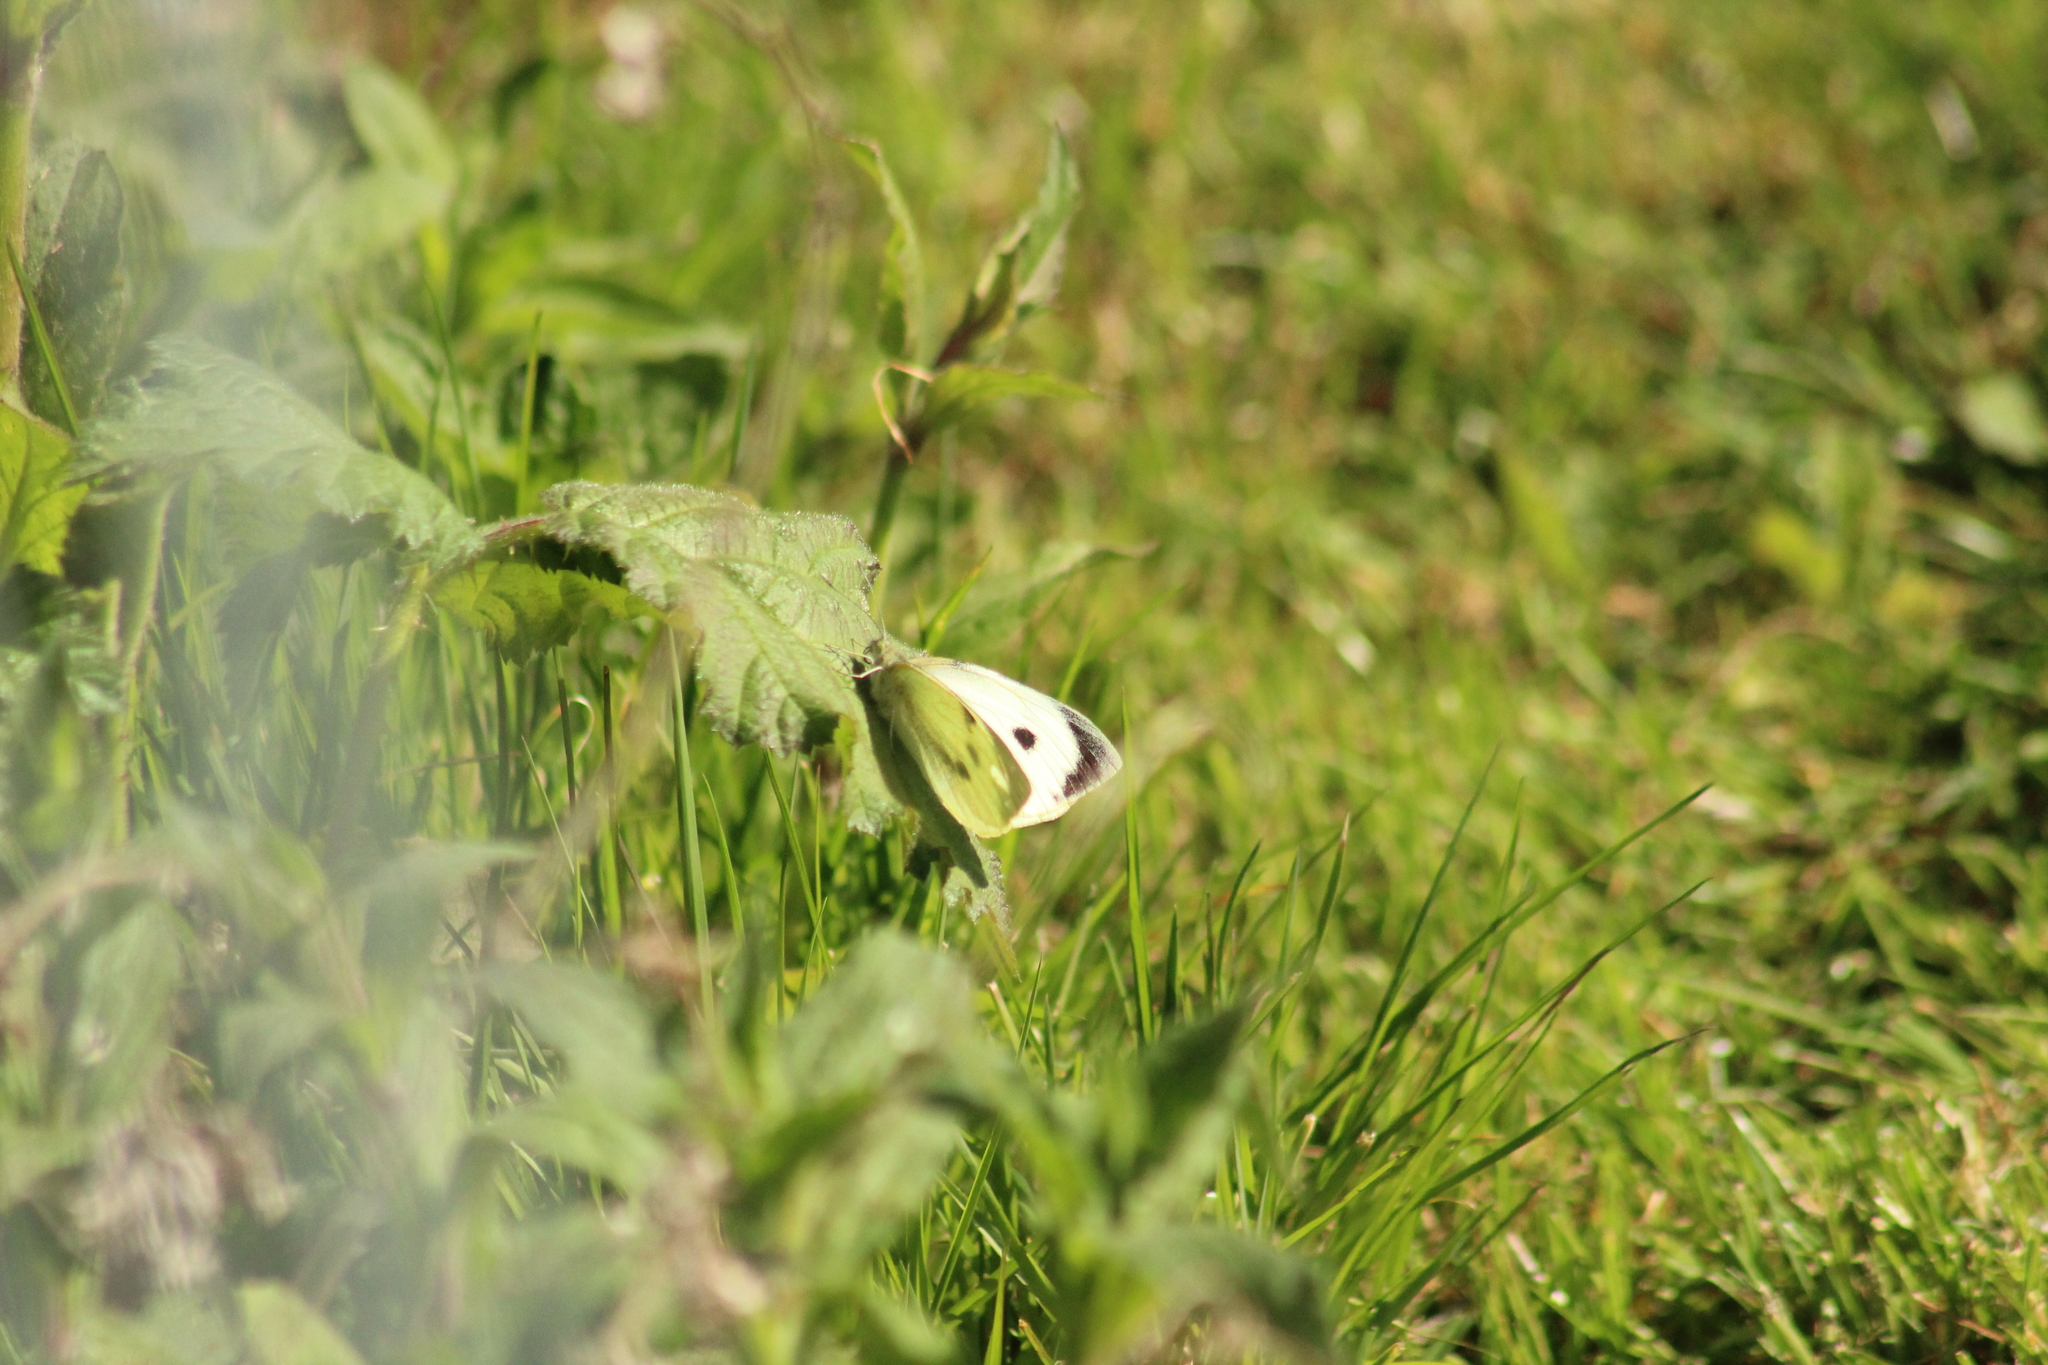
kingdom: Animalia
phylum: Arthropoda
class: Insecta
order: Lepidoptera
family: Pieridae
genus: Pieris
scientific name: Pieris brassicae
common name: Large white
